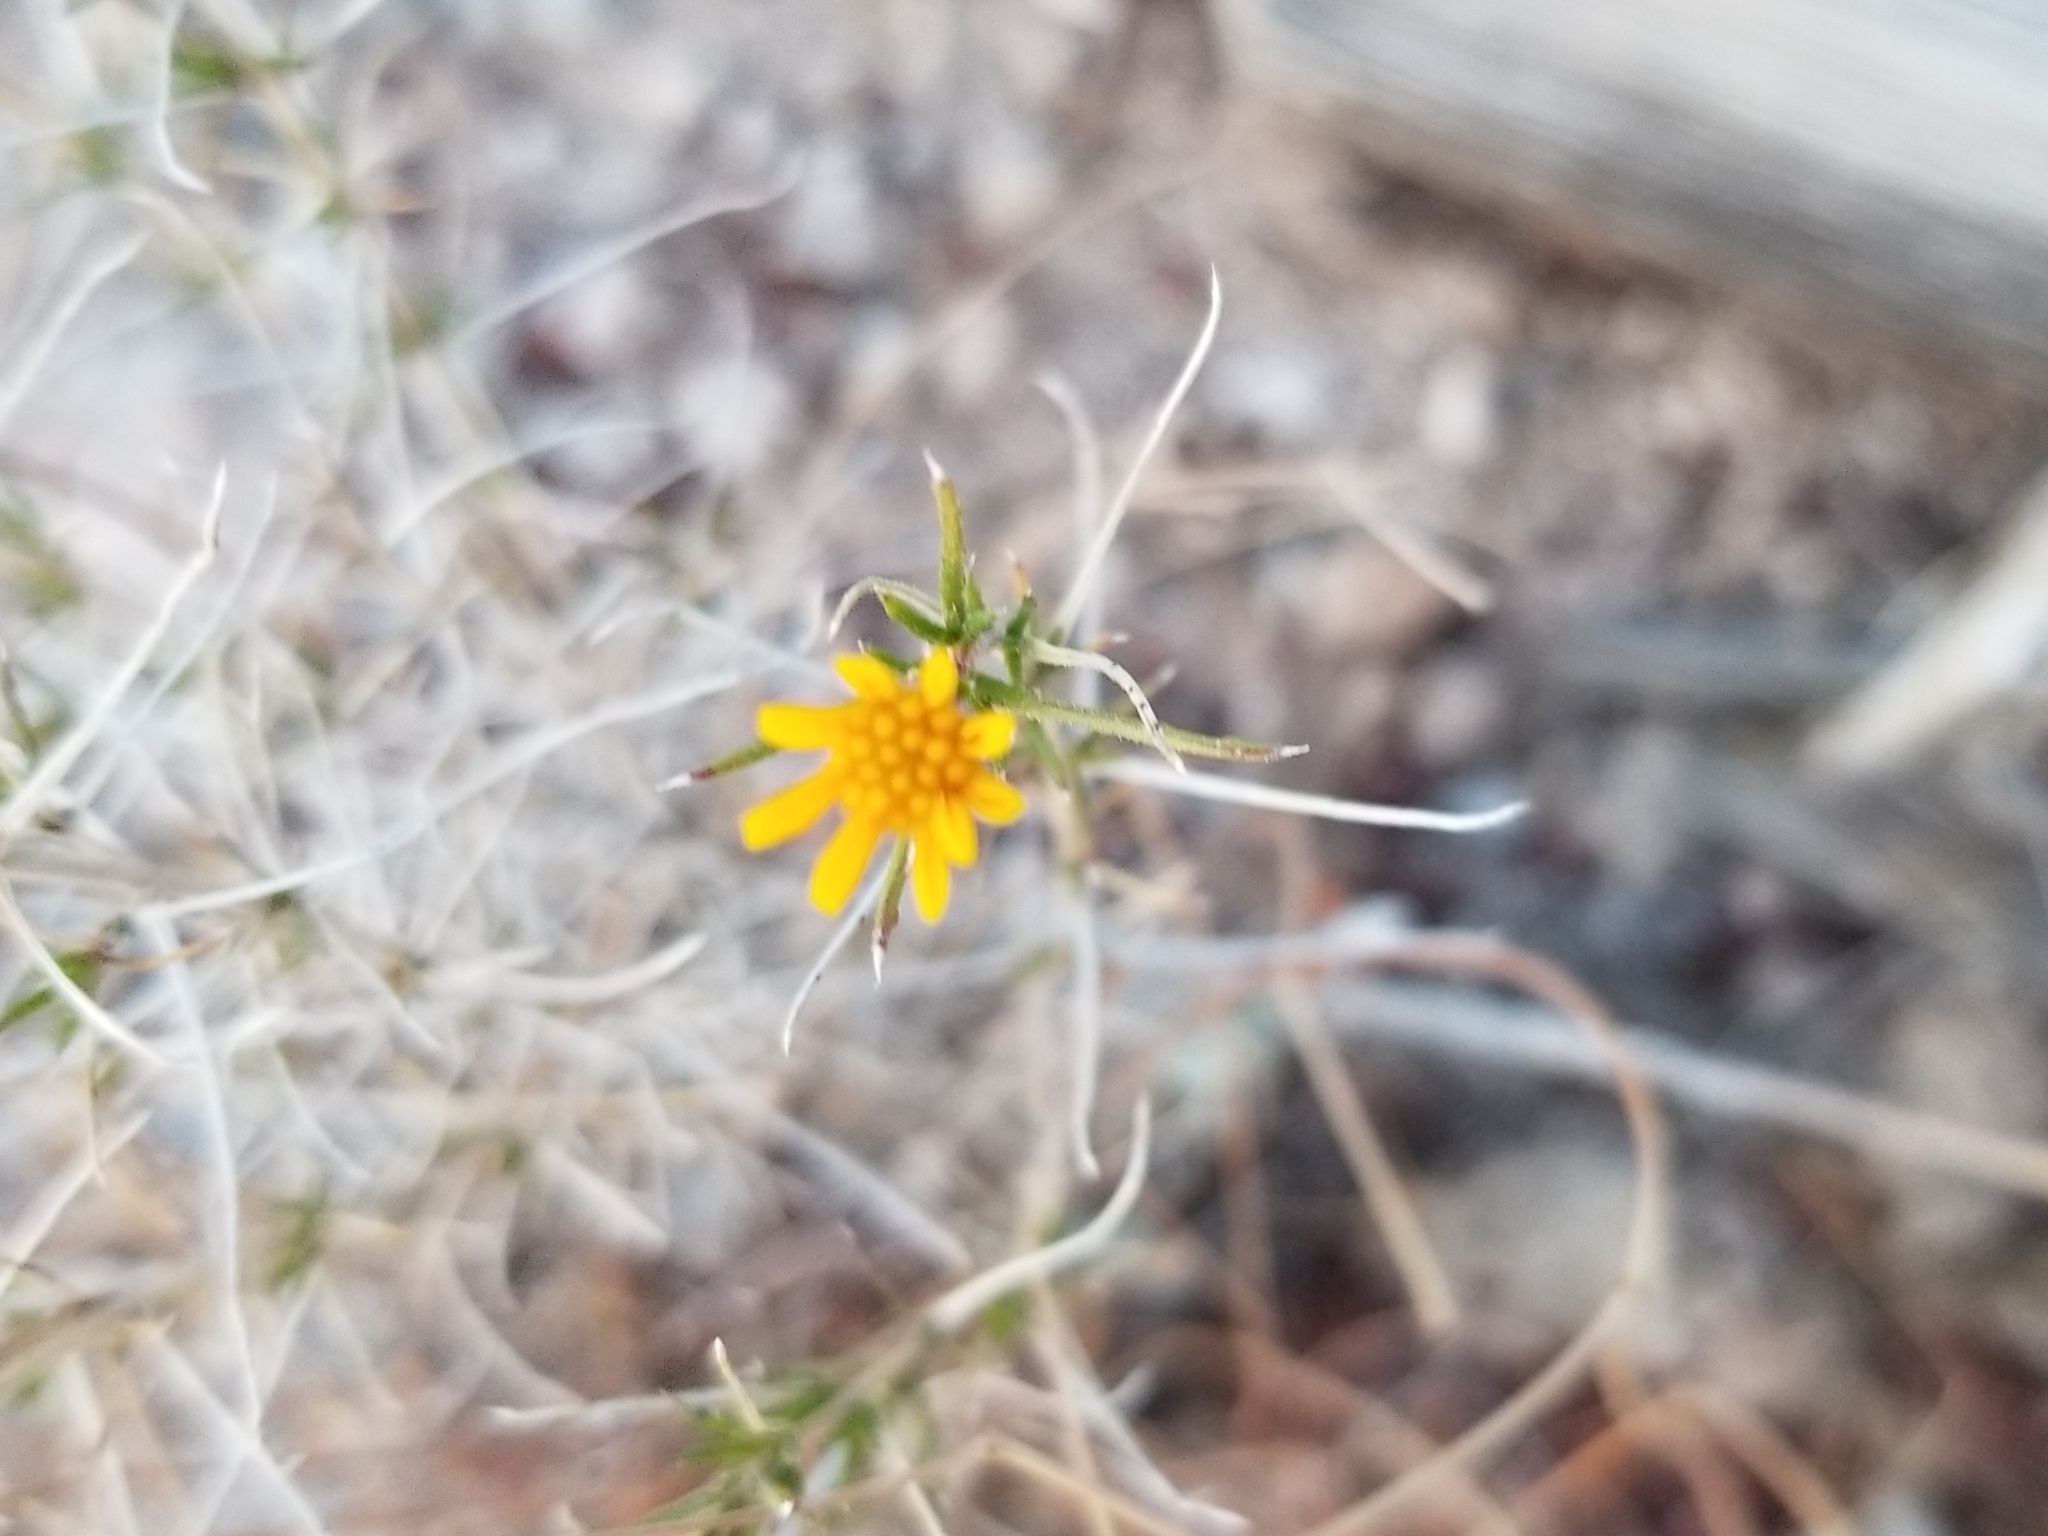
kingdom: Plantae
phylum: Tracheophyta
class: Magnoliopsida
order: Asterales
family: Asteraceae
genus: Gutierrezia
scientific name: Gutierrezia sarothrae
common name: Broom snakeweed
